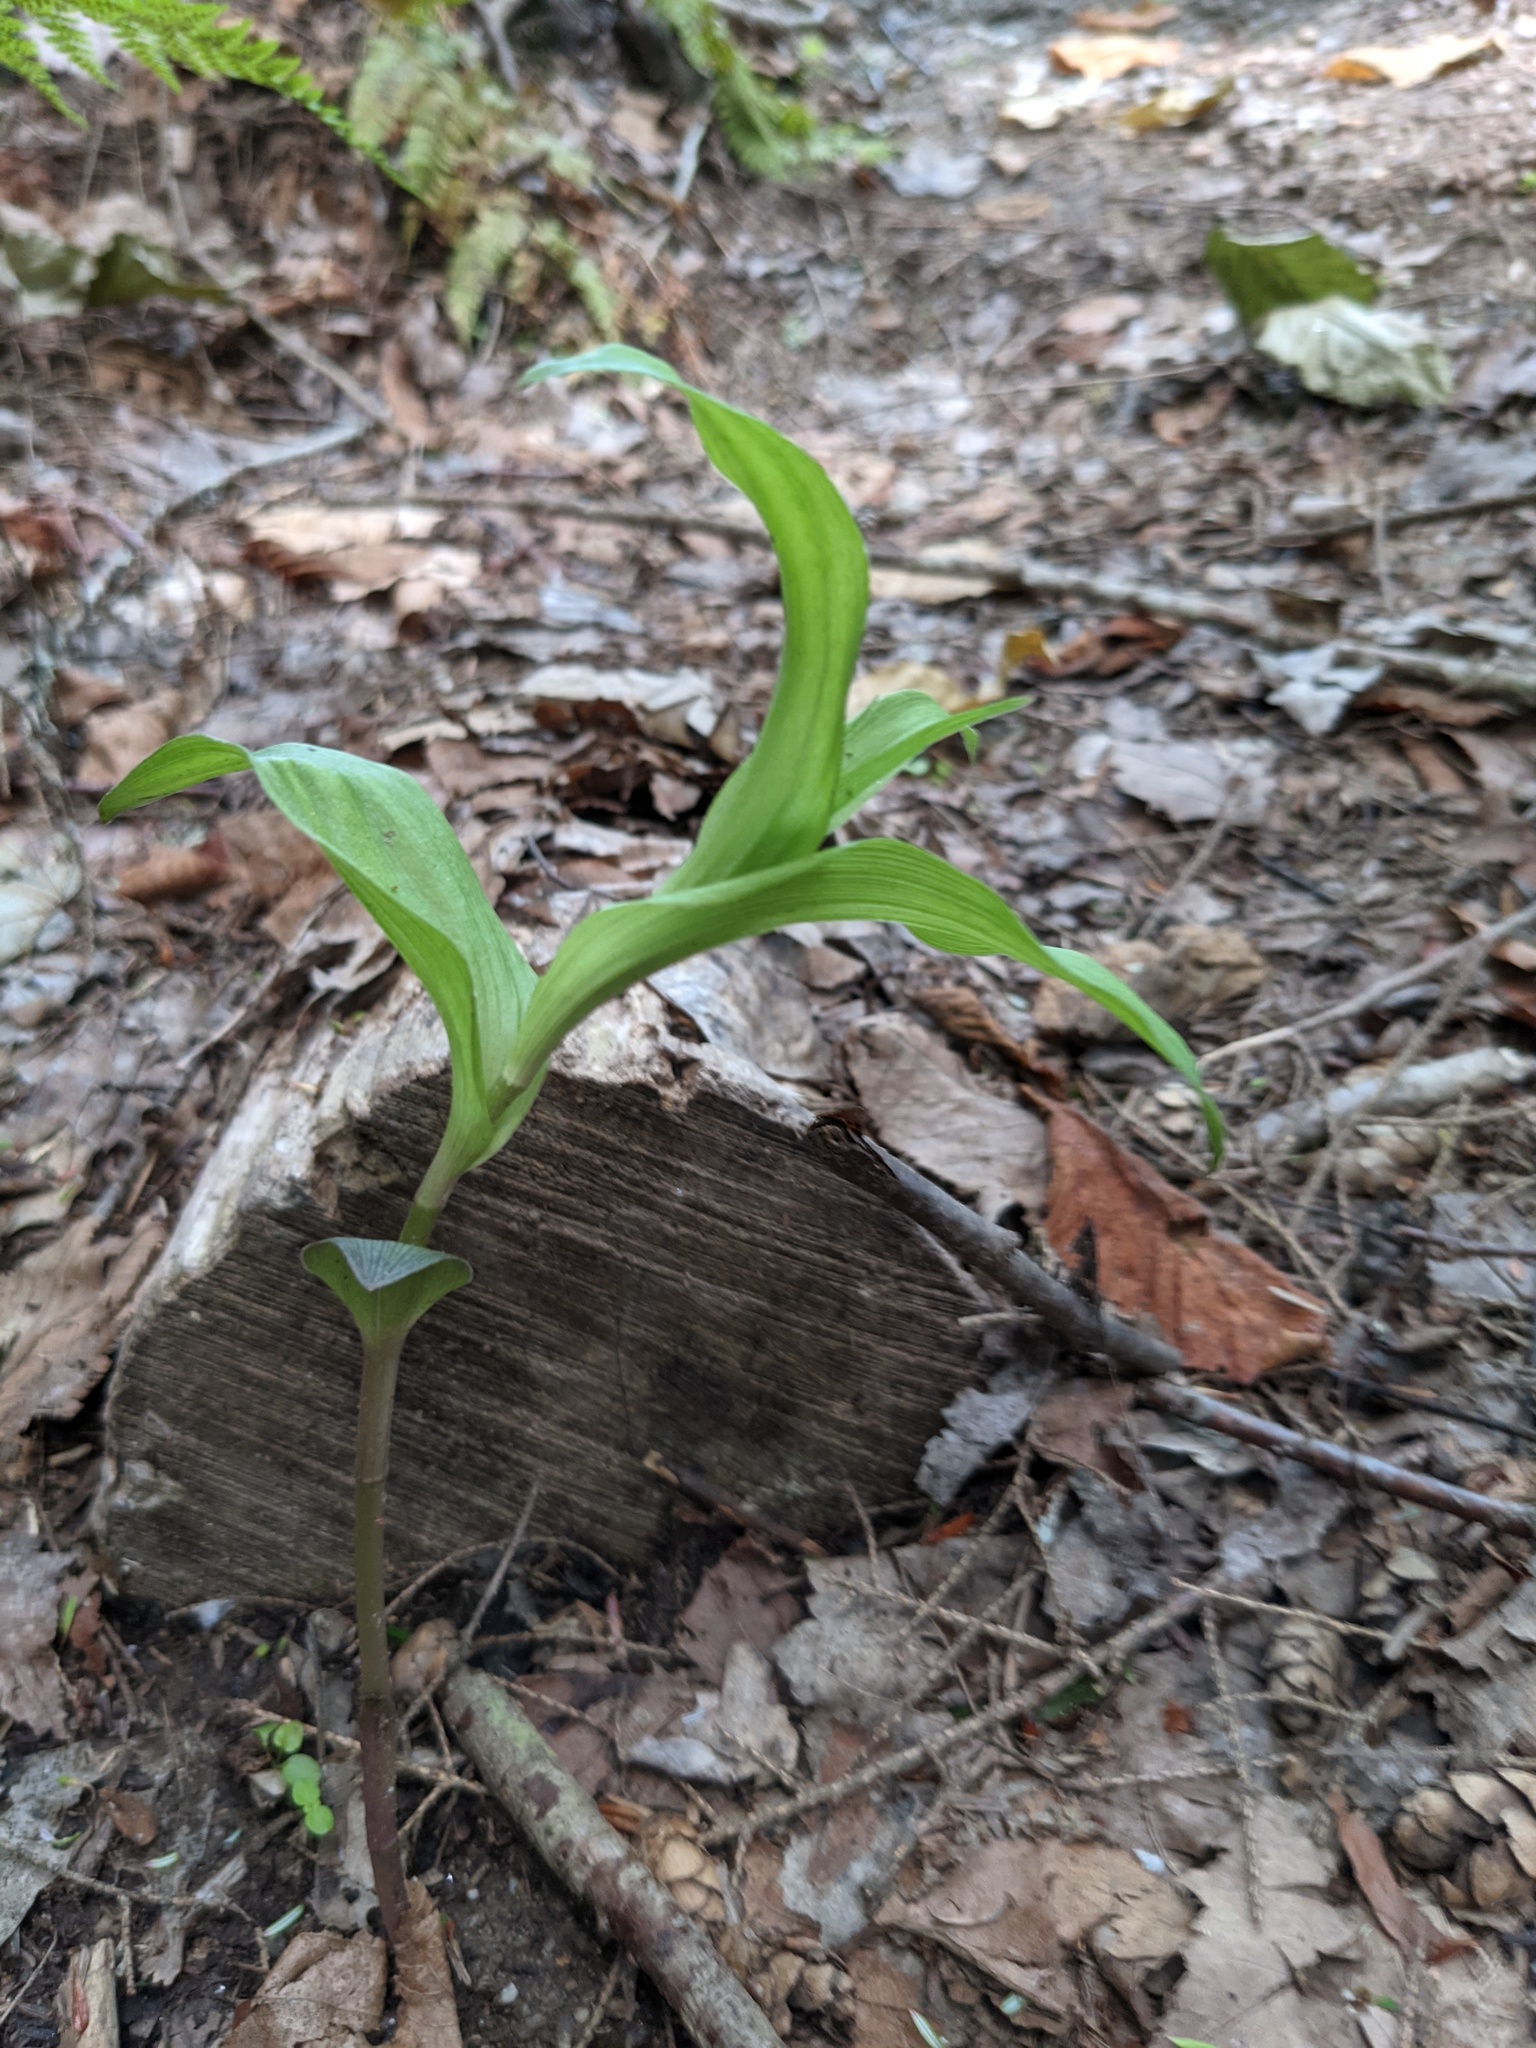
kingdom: Plantae
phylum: Tracheophyta
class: Liliopsida
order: Asparagales
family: Orchidaceae
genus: Epipactis
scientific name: Epipactis helleborine
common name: Broad-leaved helleborine
